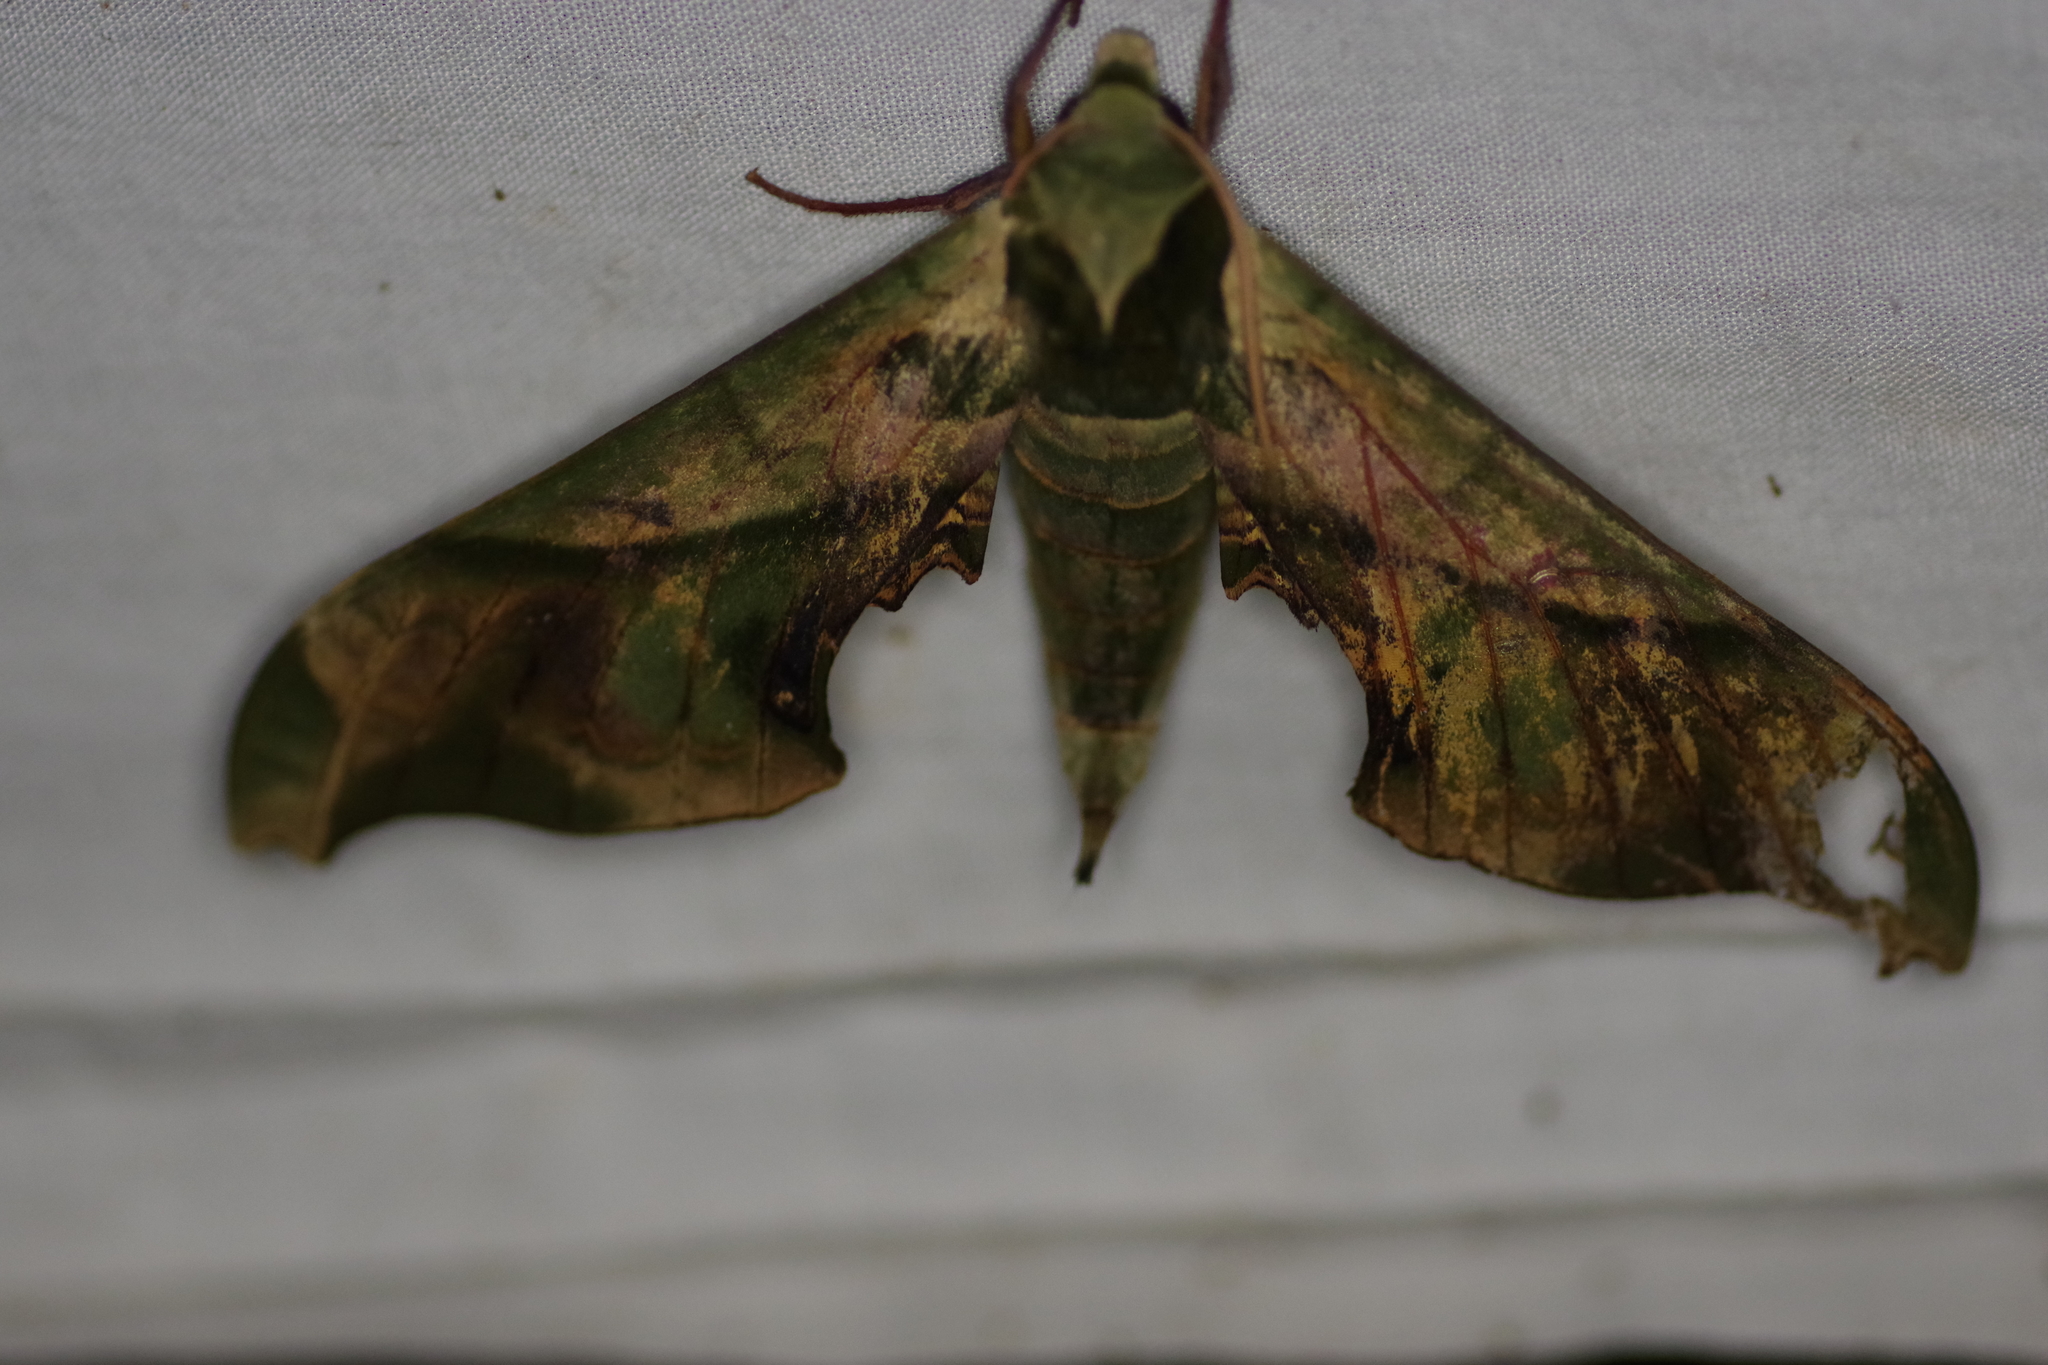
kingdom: Animalia
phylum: Arthropoda
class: Insecta
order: Lepidoptera
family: Sphingidae
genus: Adhemarius
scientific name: Adhemarius dariensis
